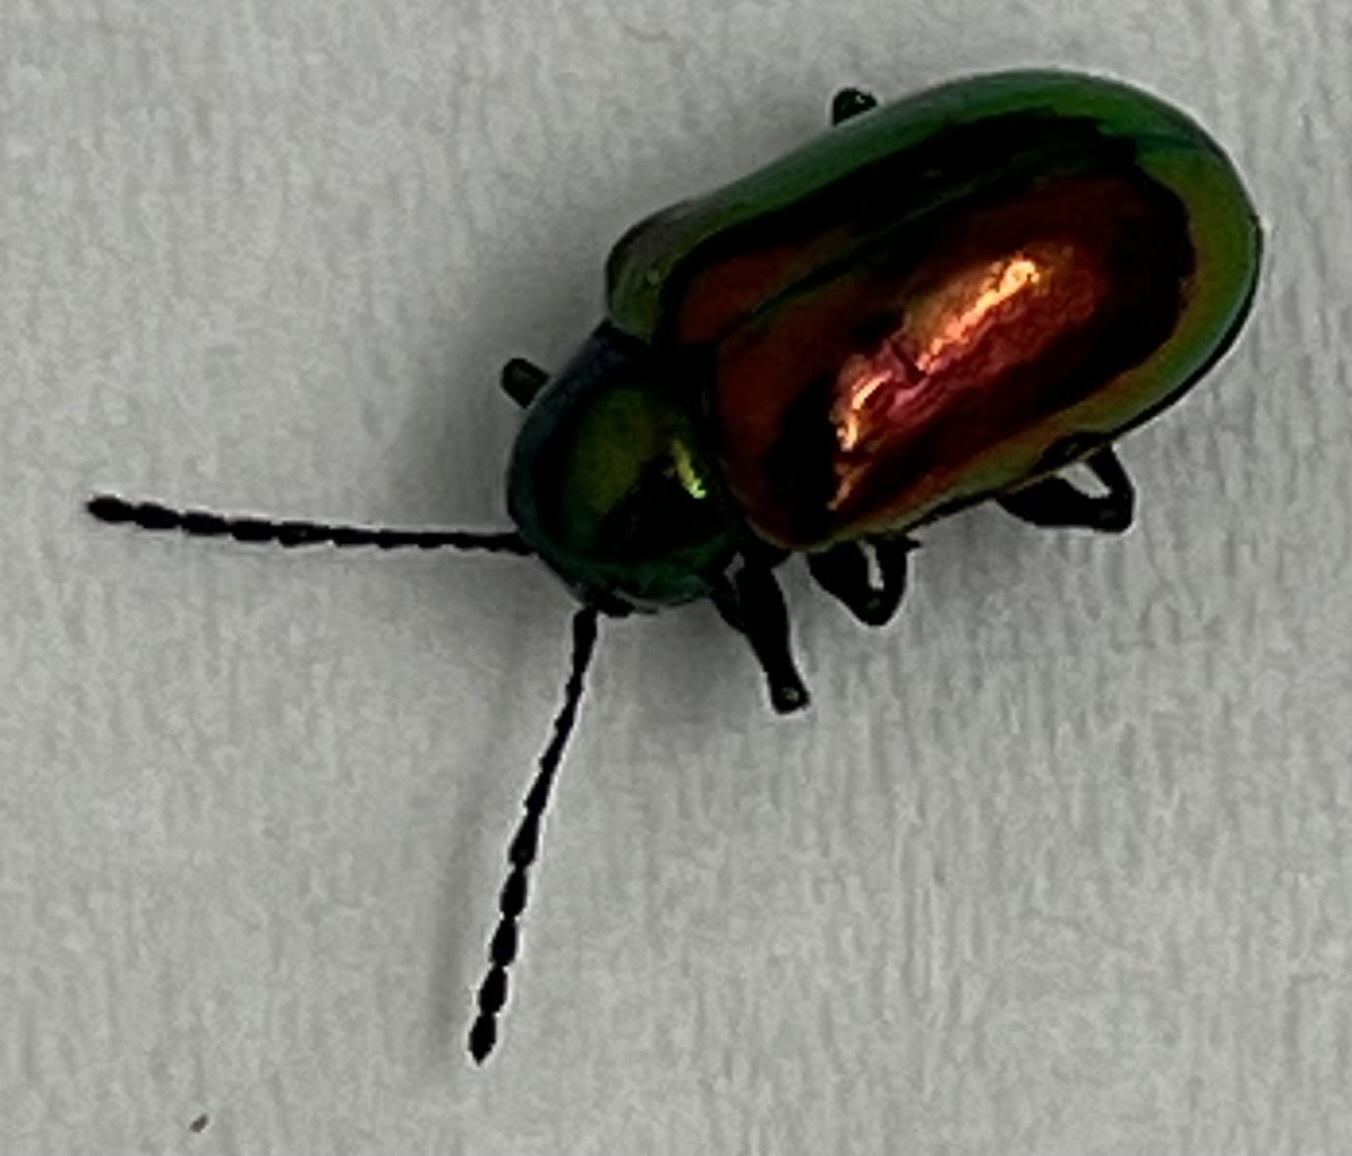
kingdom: Animalia
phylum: Arthropoda
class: Insecta
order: Coleoptera
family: Chrysomelidae
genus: Chrysochus
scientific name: Chrysochus auratus
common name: Dogbane leaf beetle
